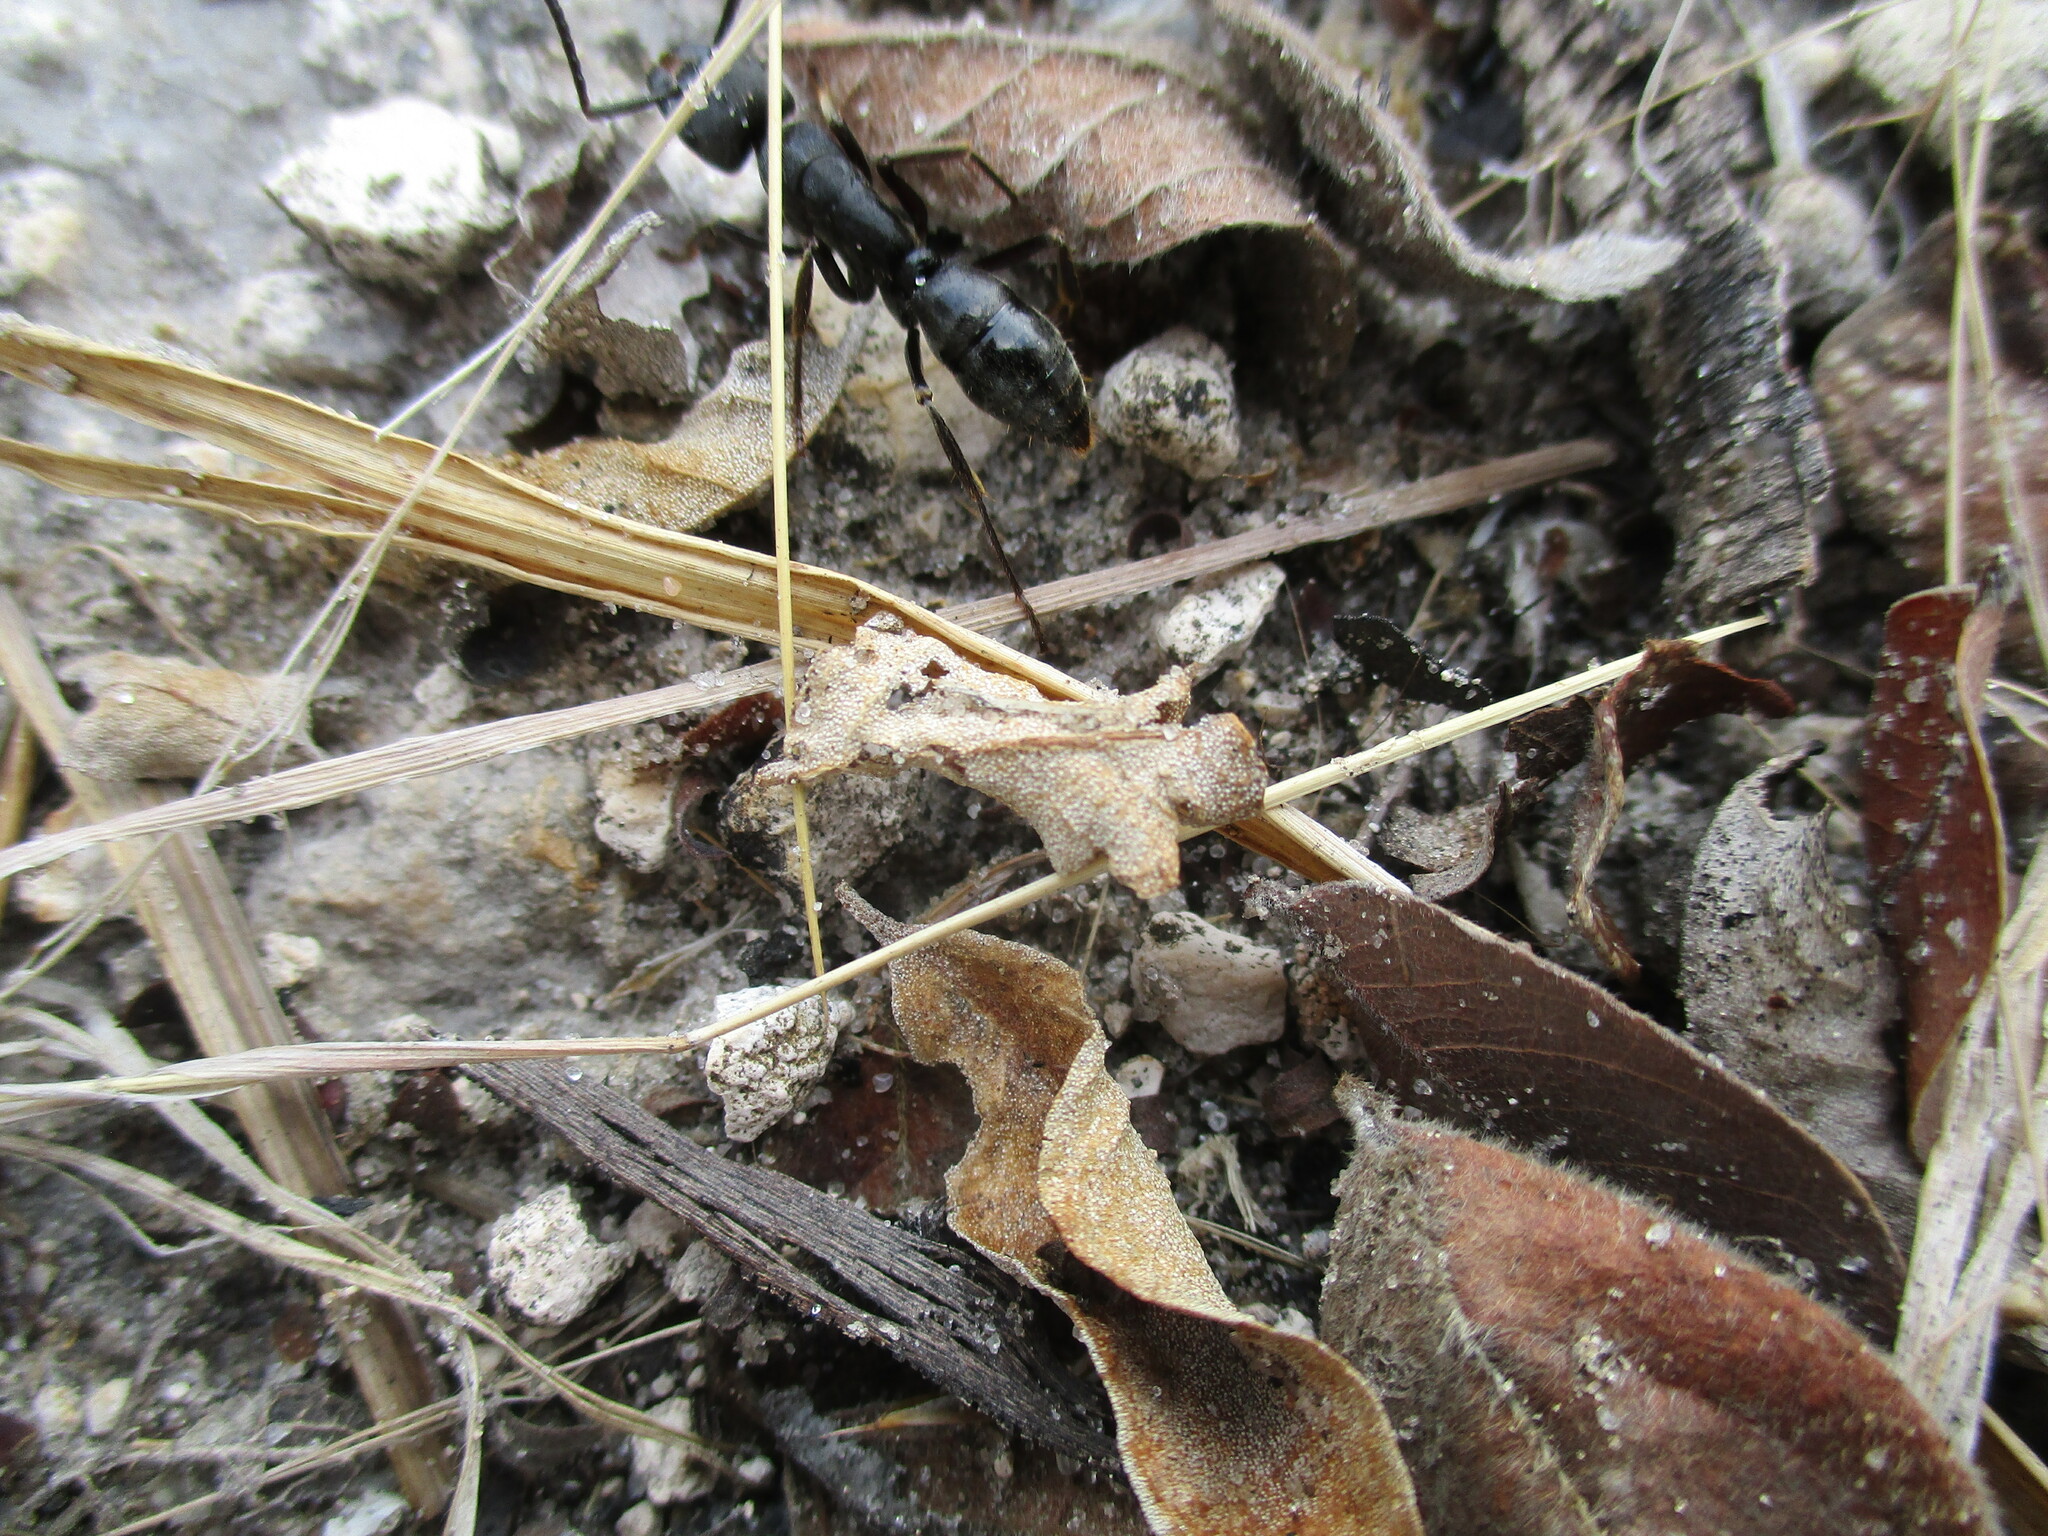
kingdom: Animalia
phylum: Arthropoda
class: Insecta
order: Hymenoptera
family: Formicidae
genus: Paltothyreus
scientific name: Paltothyreus tarsatus
